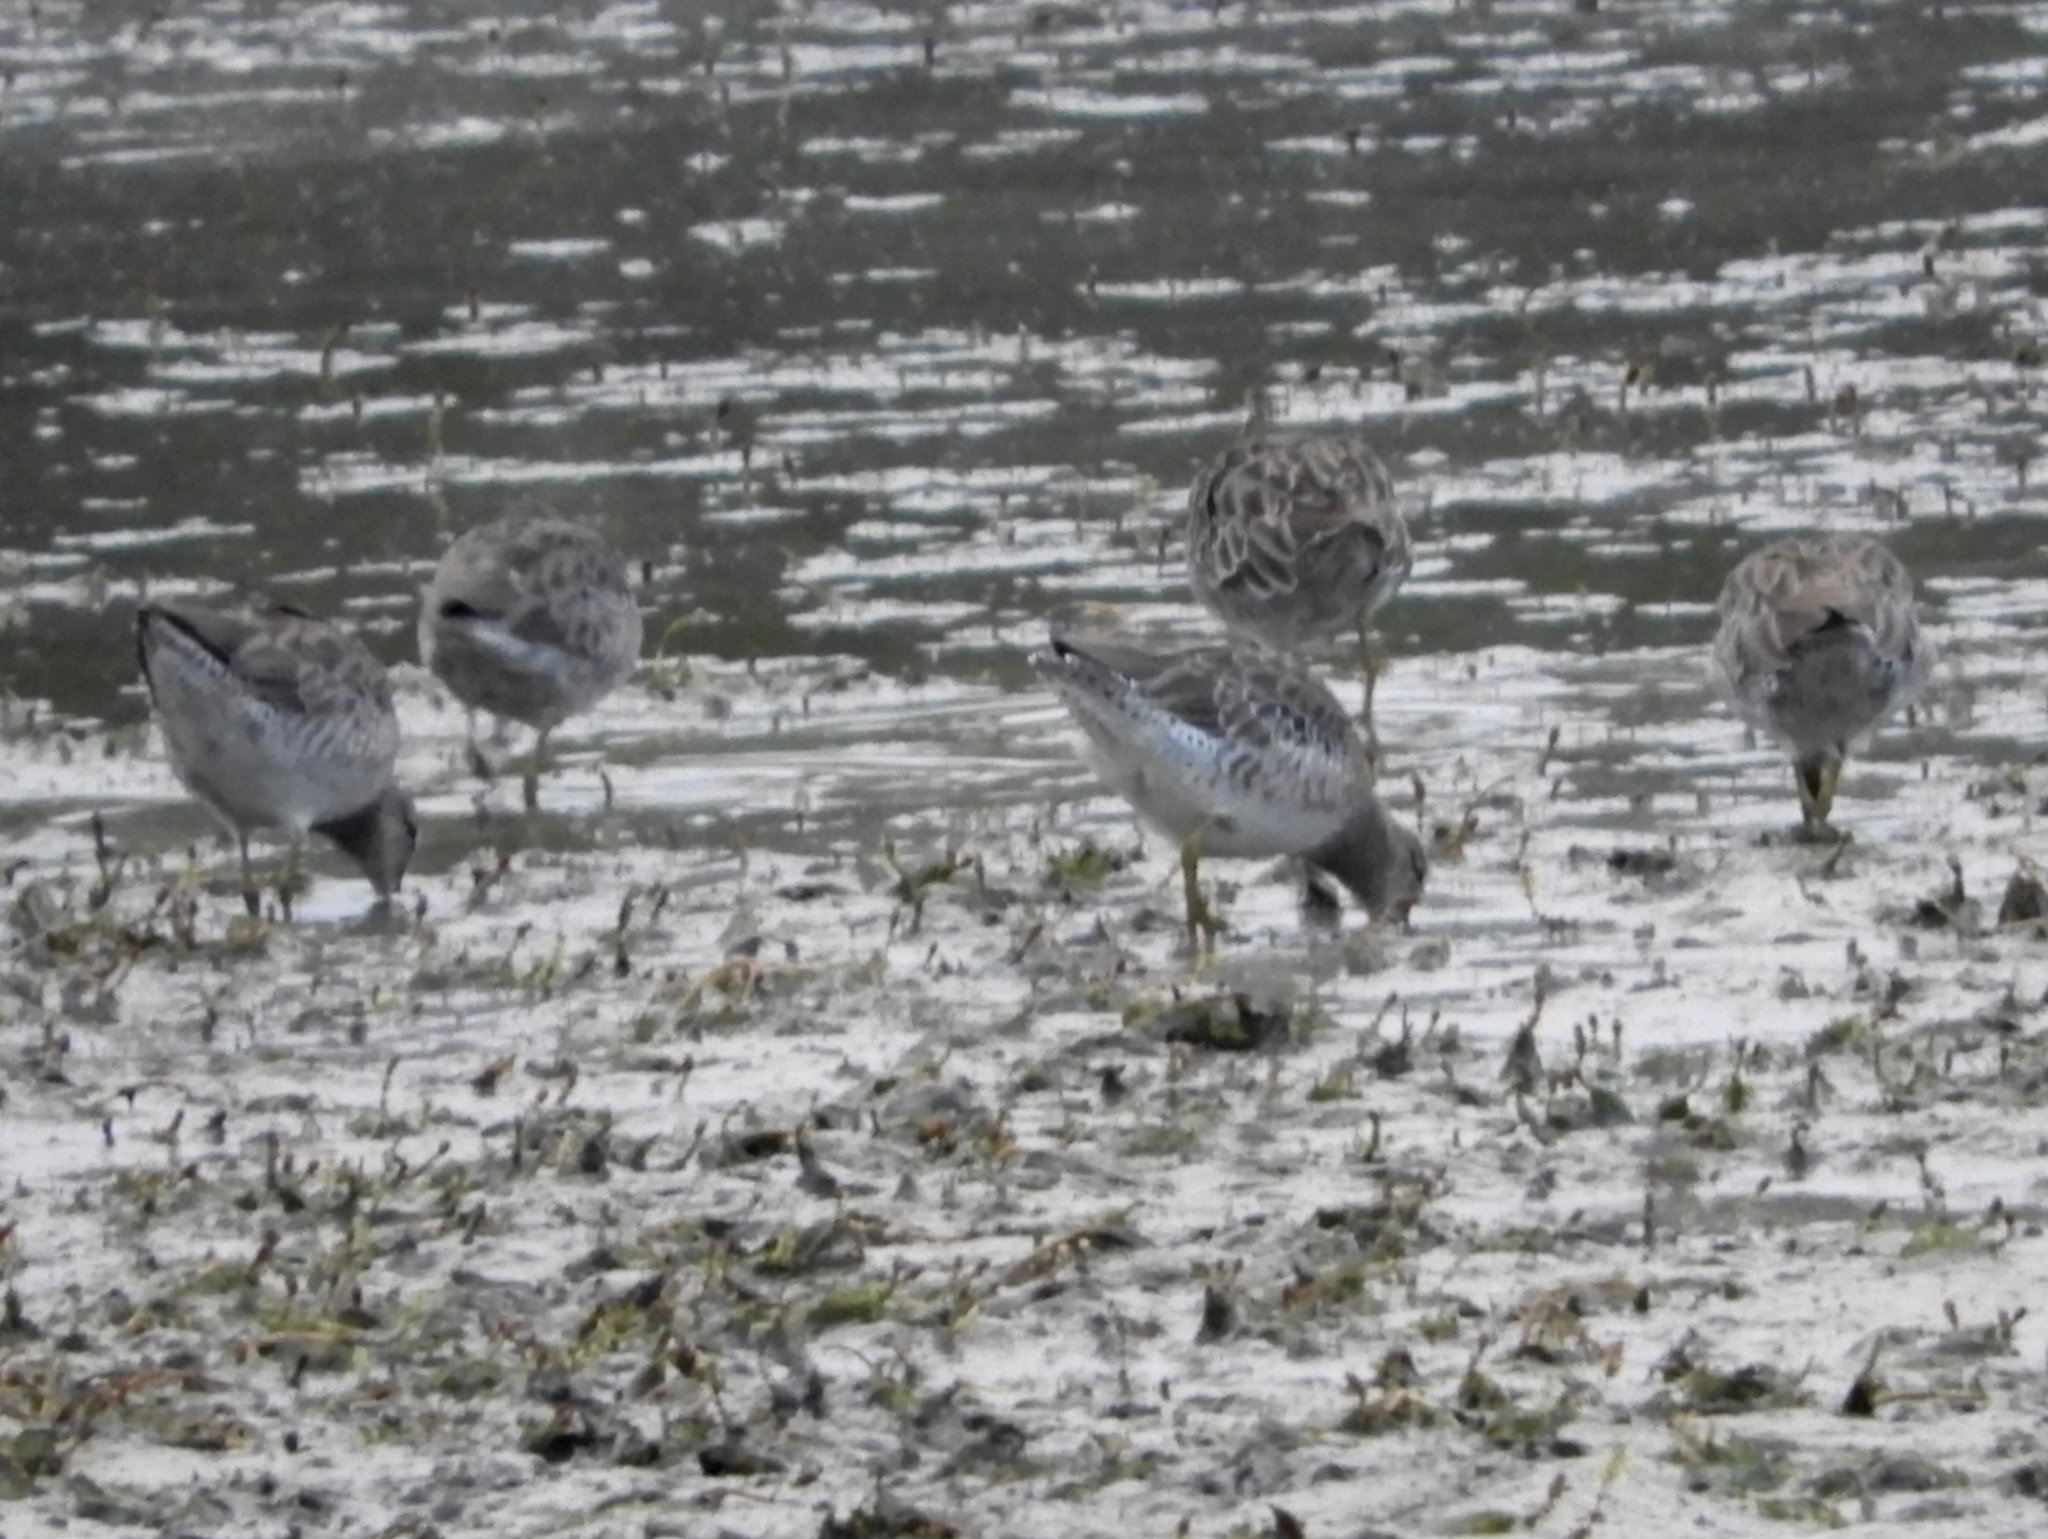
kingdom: Animalia
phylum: Chordata
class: Aves
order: Charadriiformes
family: Scolopacidae
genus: Limnodromus
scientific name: Limnodromus scolopaceus
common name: Long-billed dowitcher
